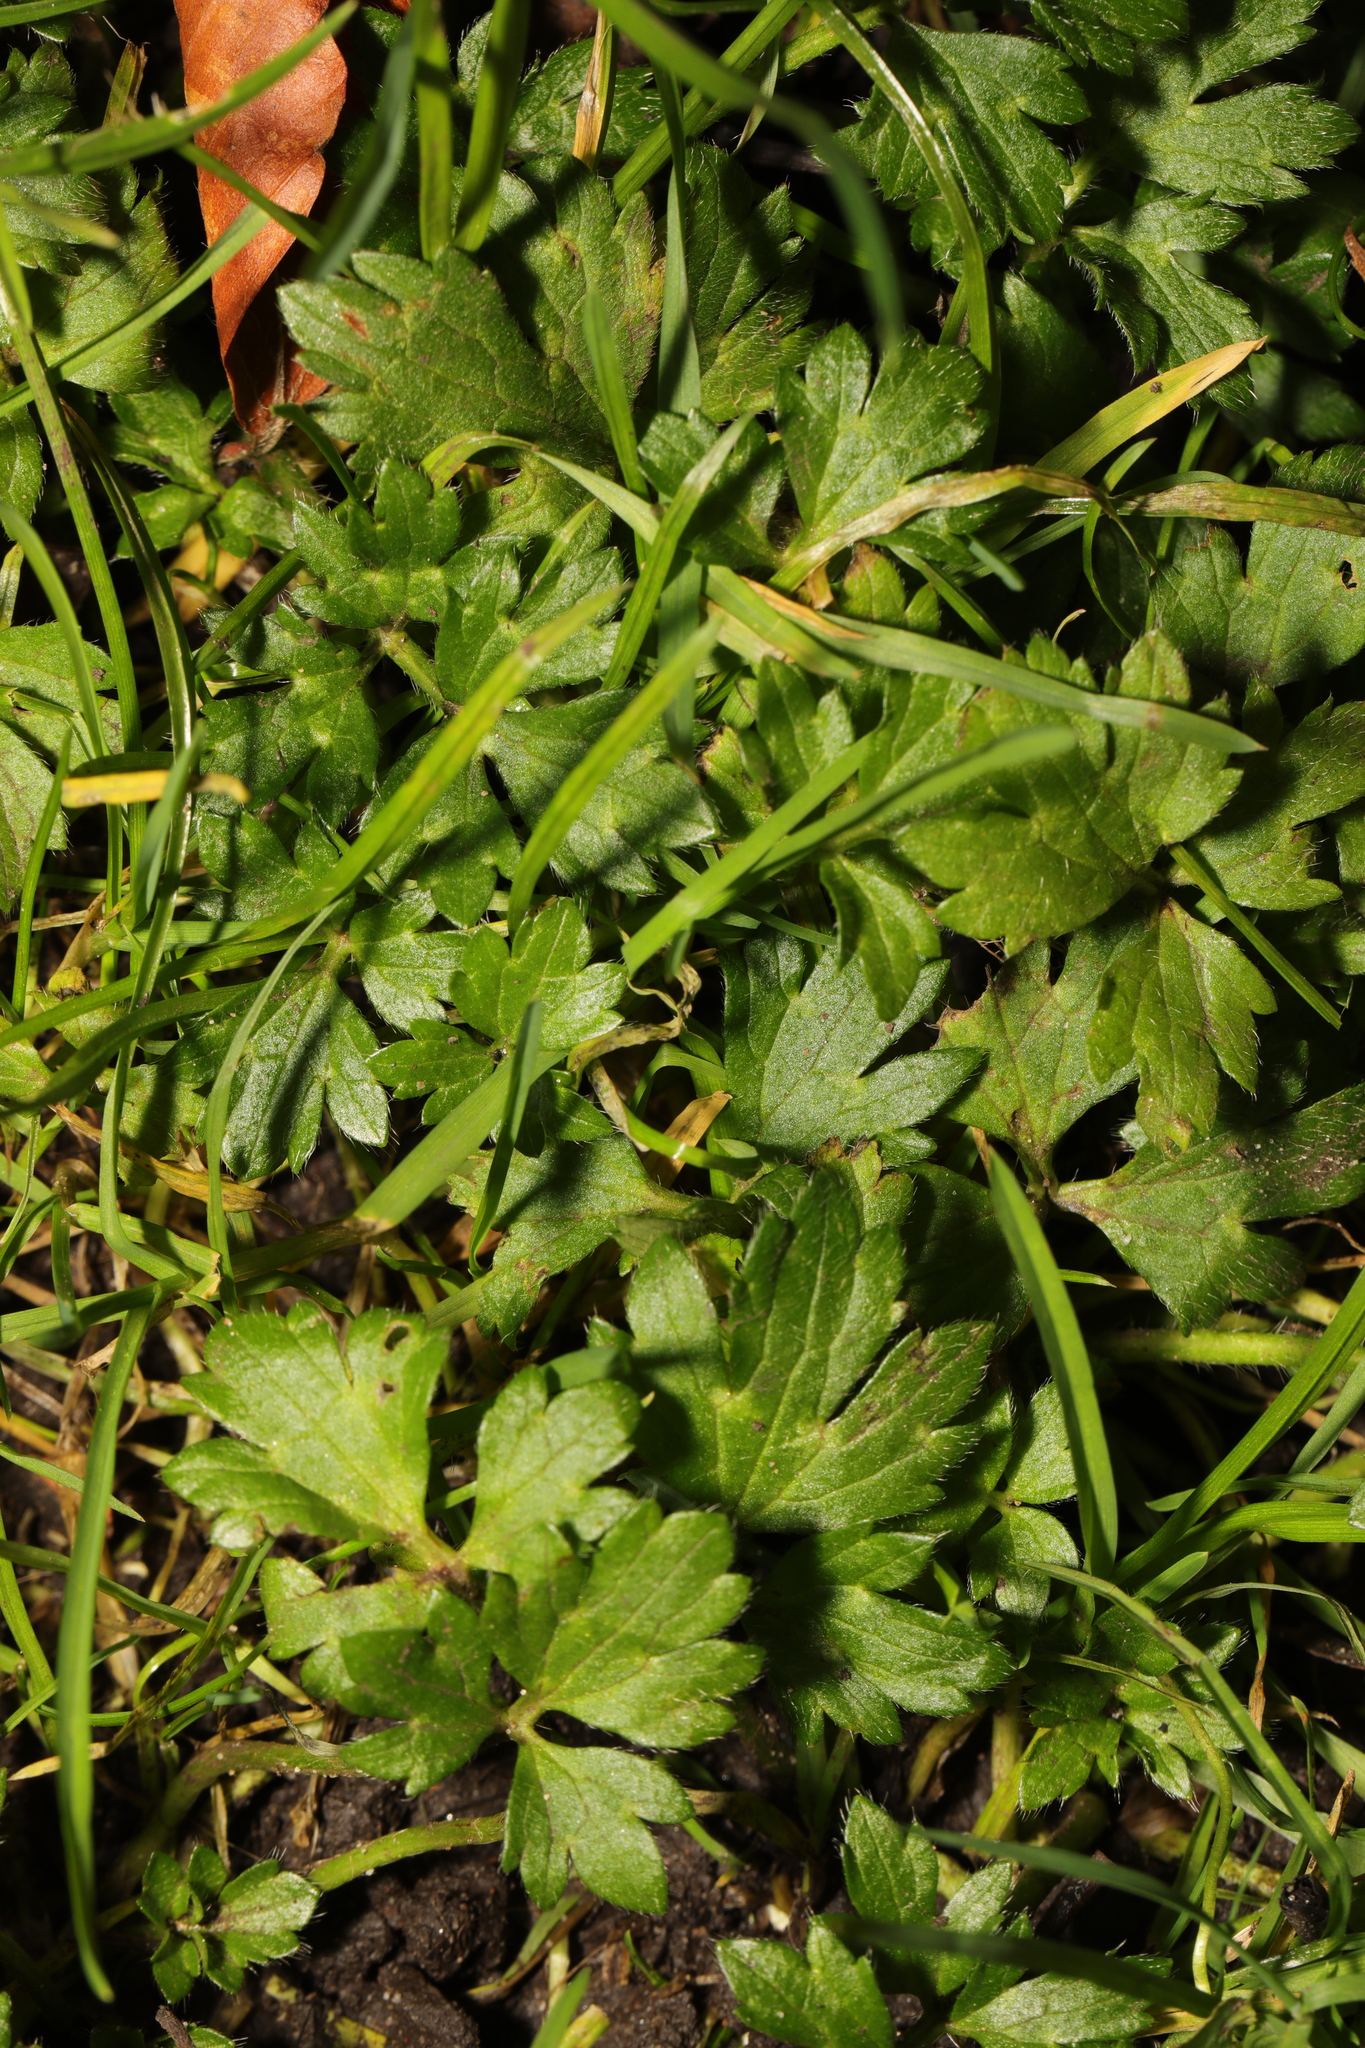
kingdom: Plantae
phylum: Tracheophyta
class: Magnoliopsida
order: Ranunculales
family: Ranunculaceae
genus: Ranunculus
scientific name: Ranunculus repens
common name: Creeping buttercup
